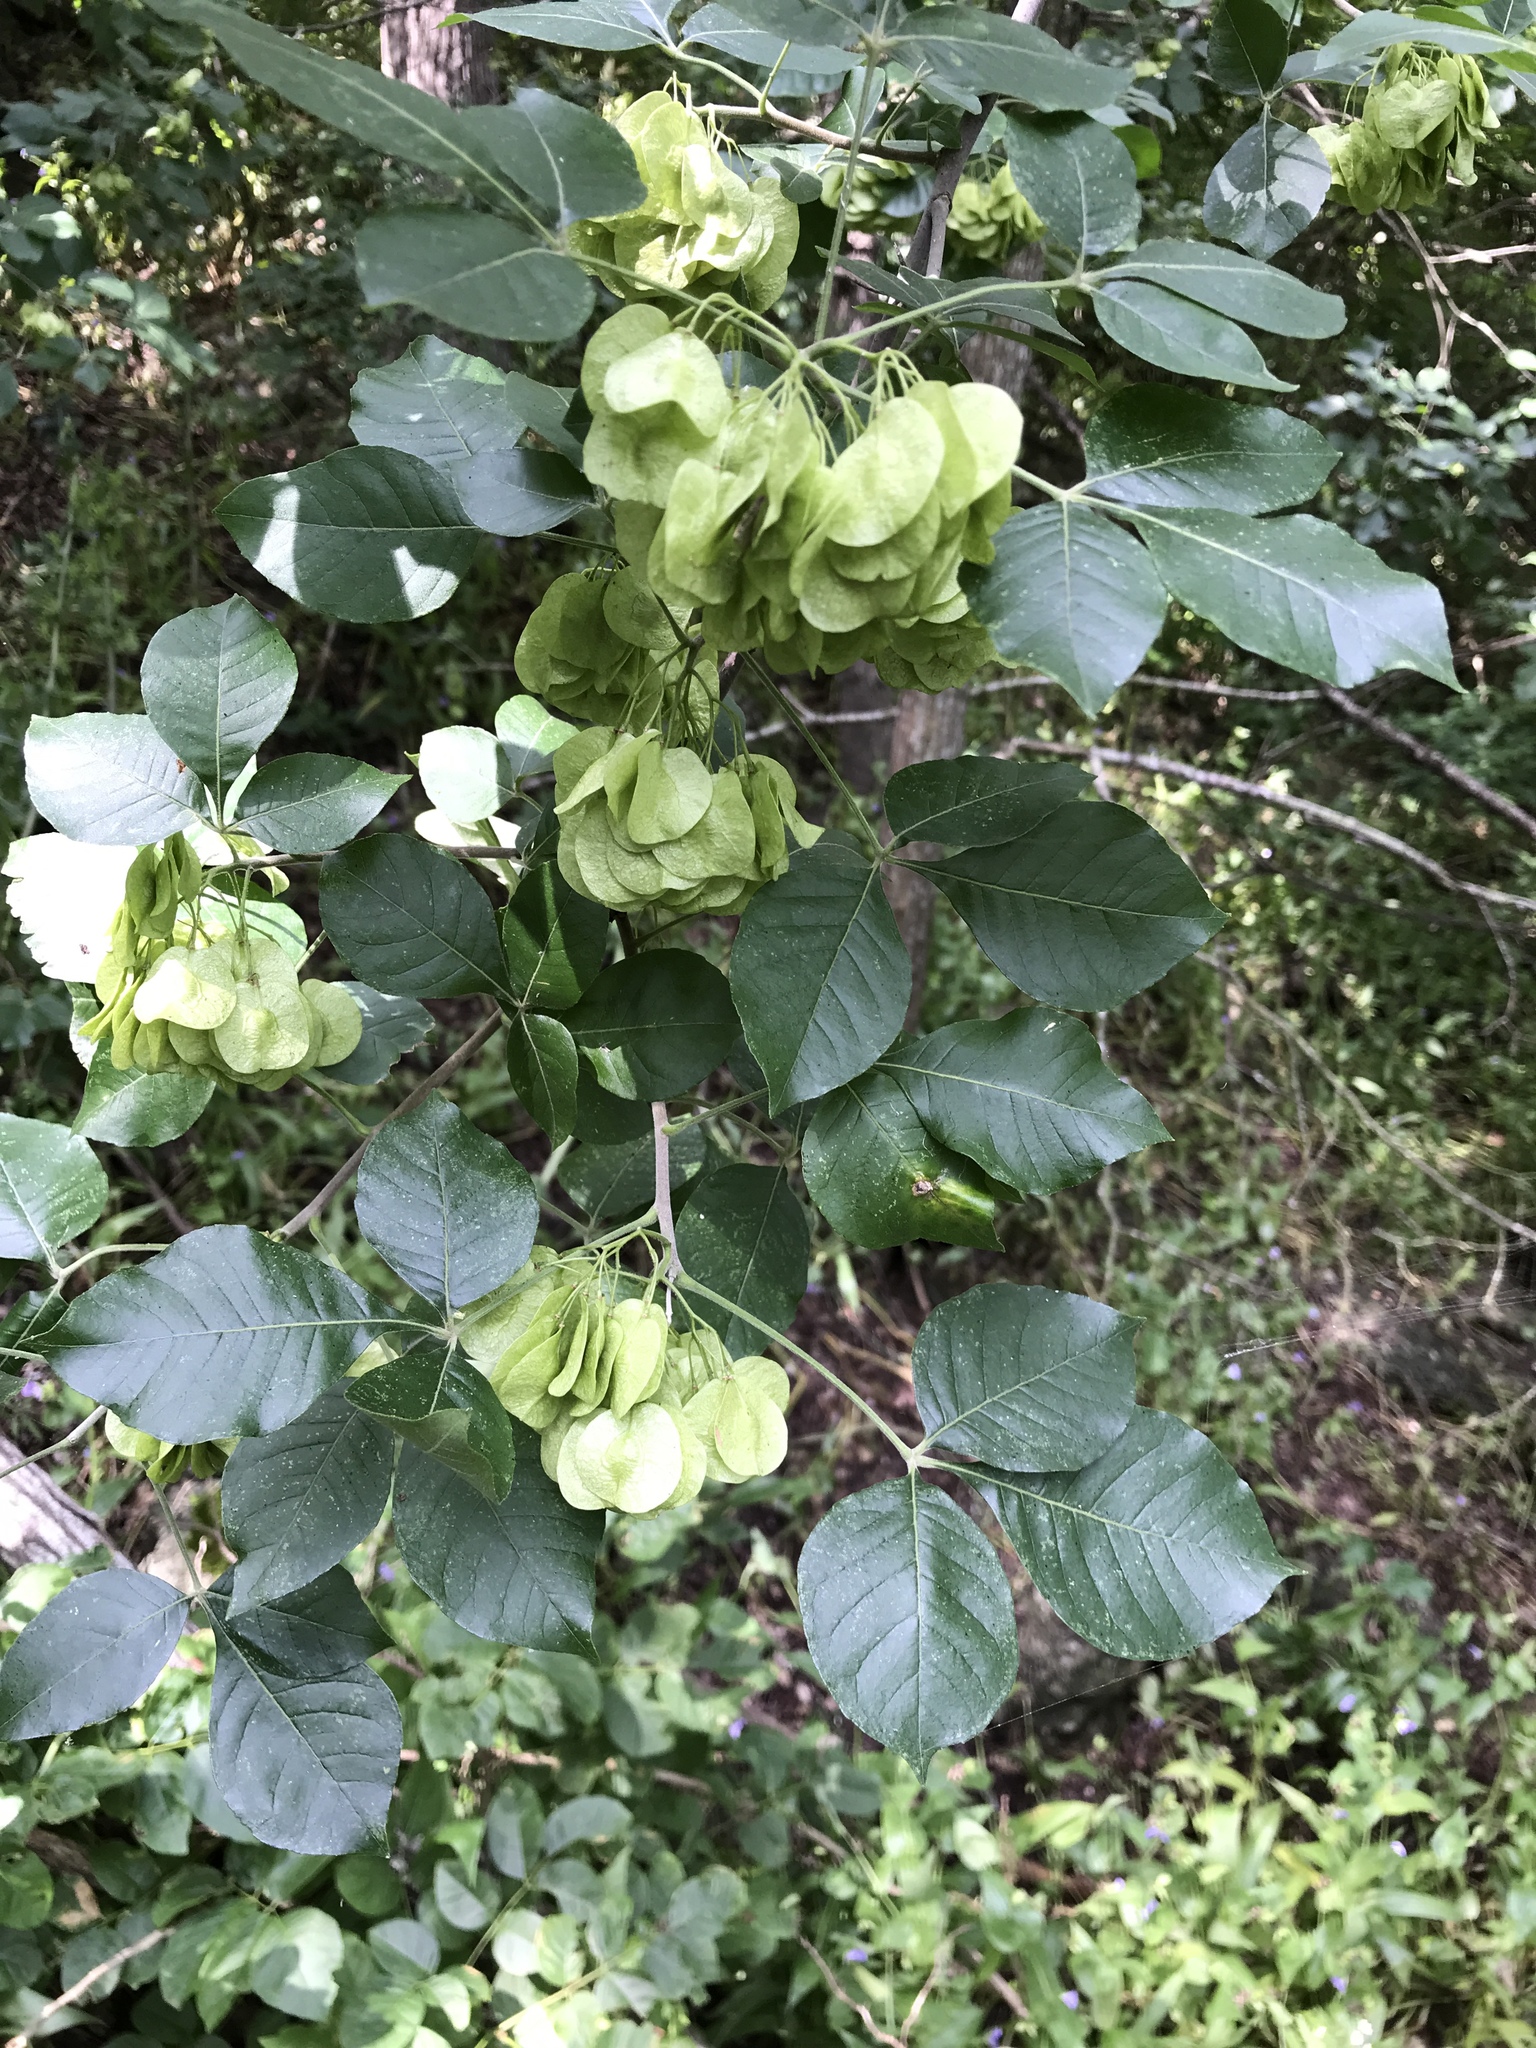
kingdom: Plantae
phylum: Tracheophyta
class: Magnoliopsida
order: Sapindales
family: Rutaceae
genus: Ptelea
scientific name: Ptelea trifoliata
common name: Common hop-tree
